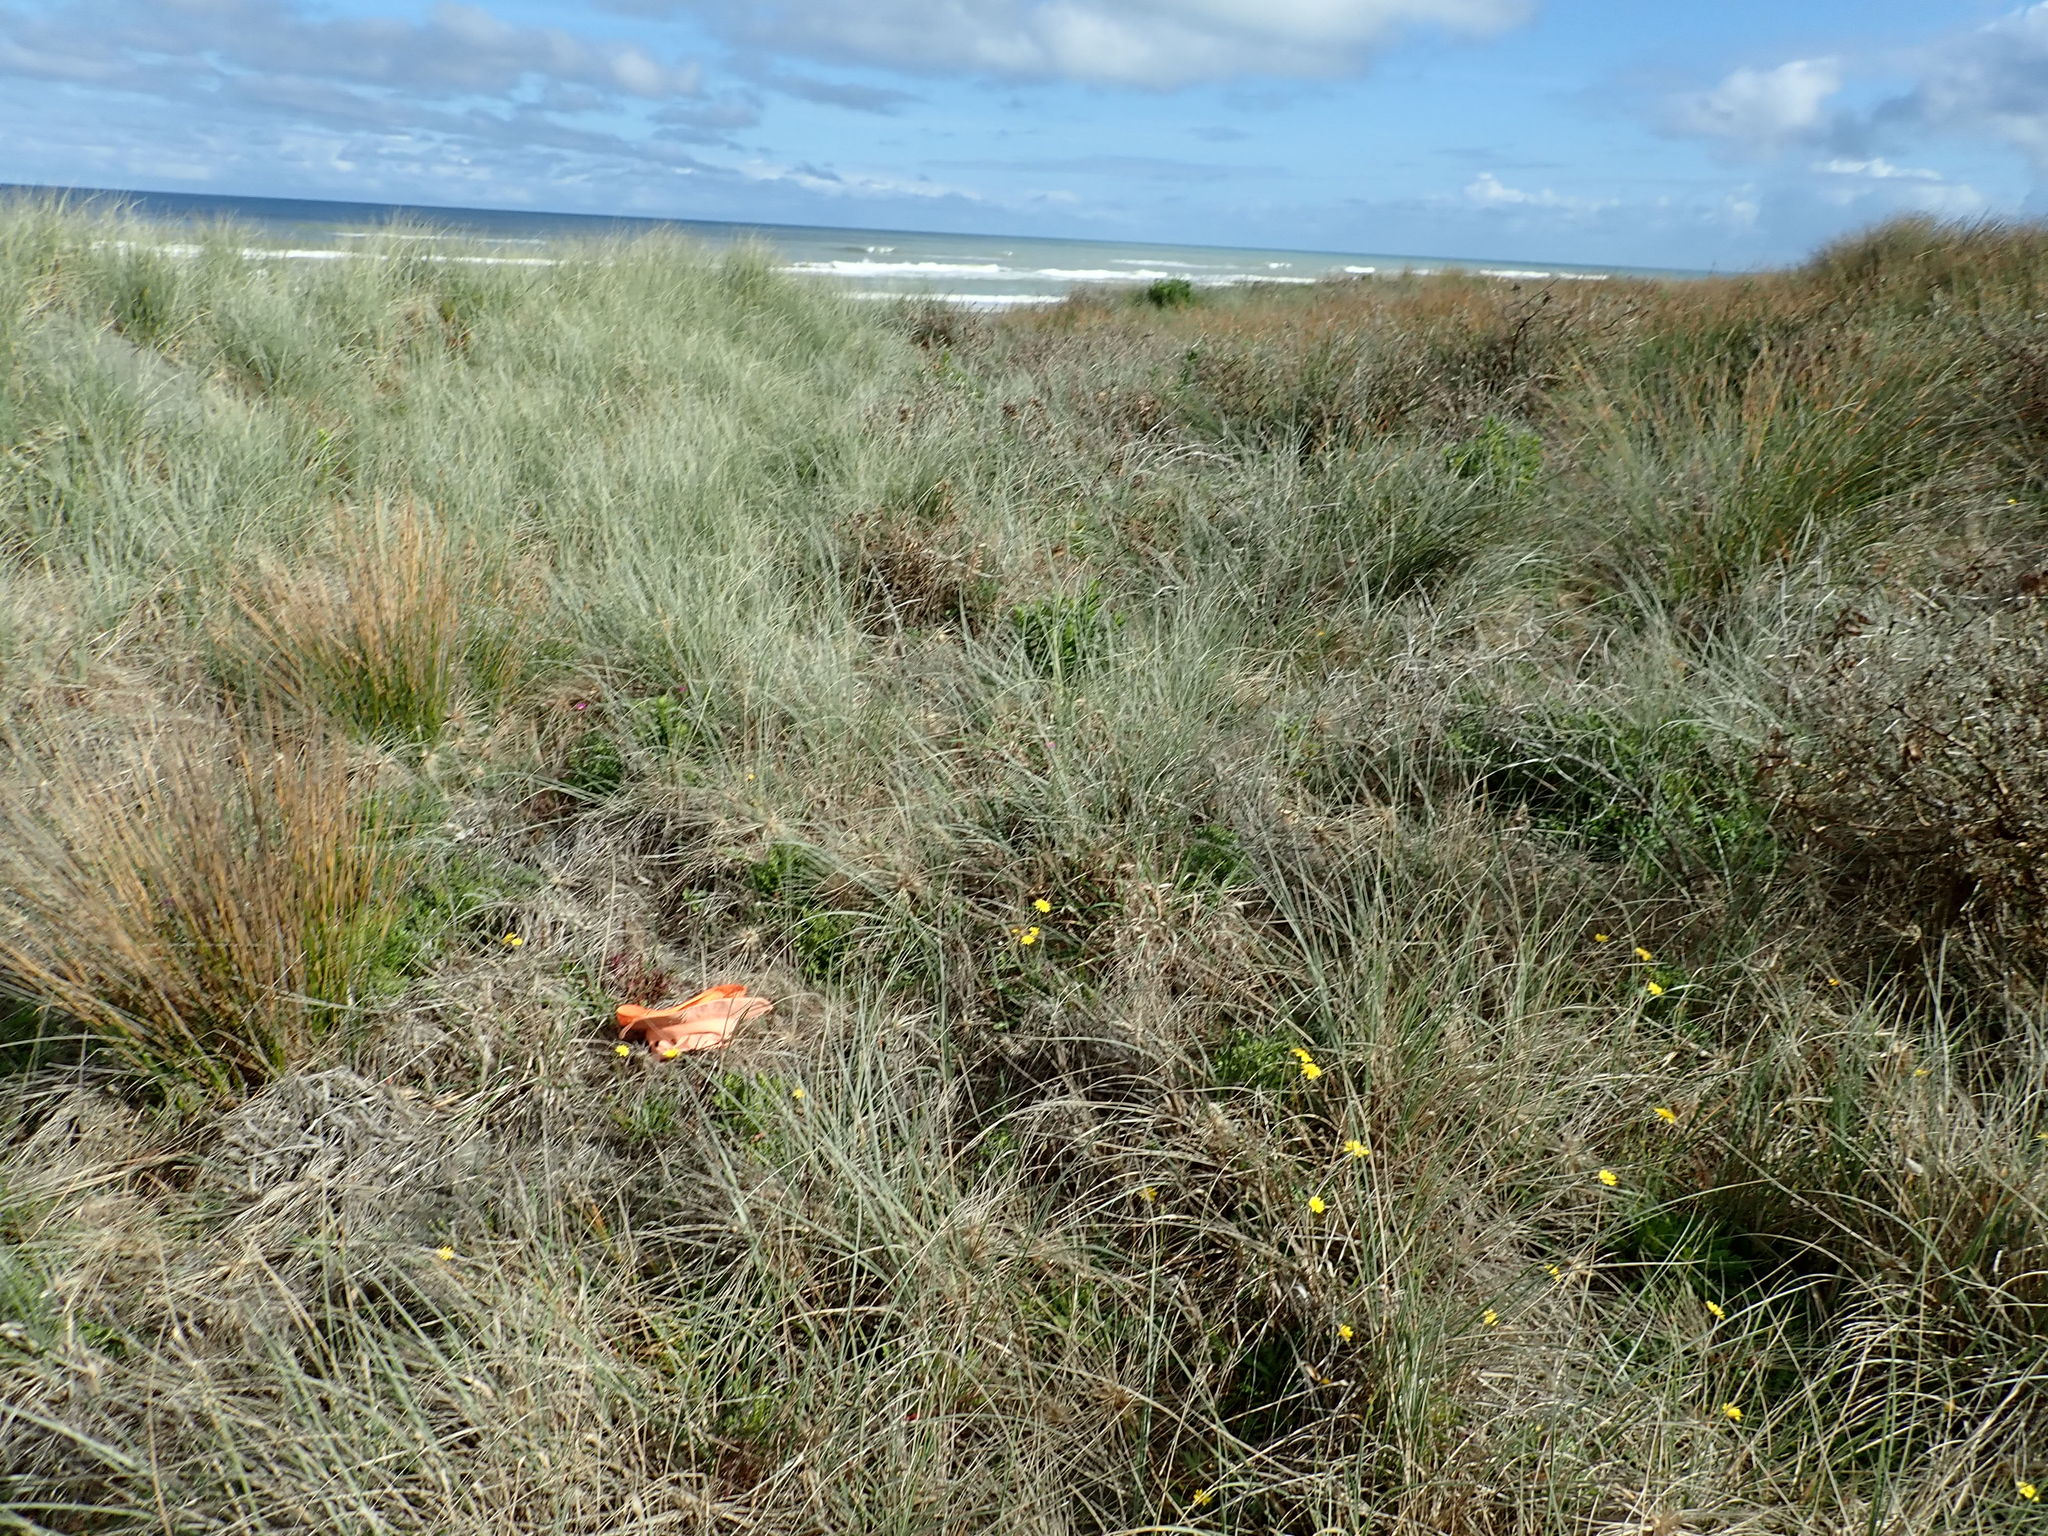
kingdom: Plantae
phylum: Tracheophyta
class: Magnoliopsida
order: Lamiales
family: Orobanchaceae
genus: Orobanche
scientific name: Orobanche minor
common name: Common broomrape
